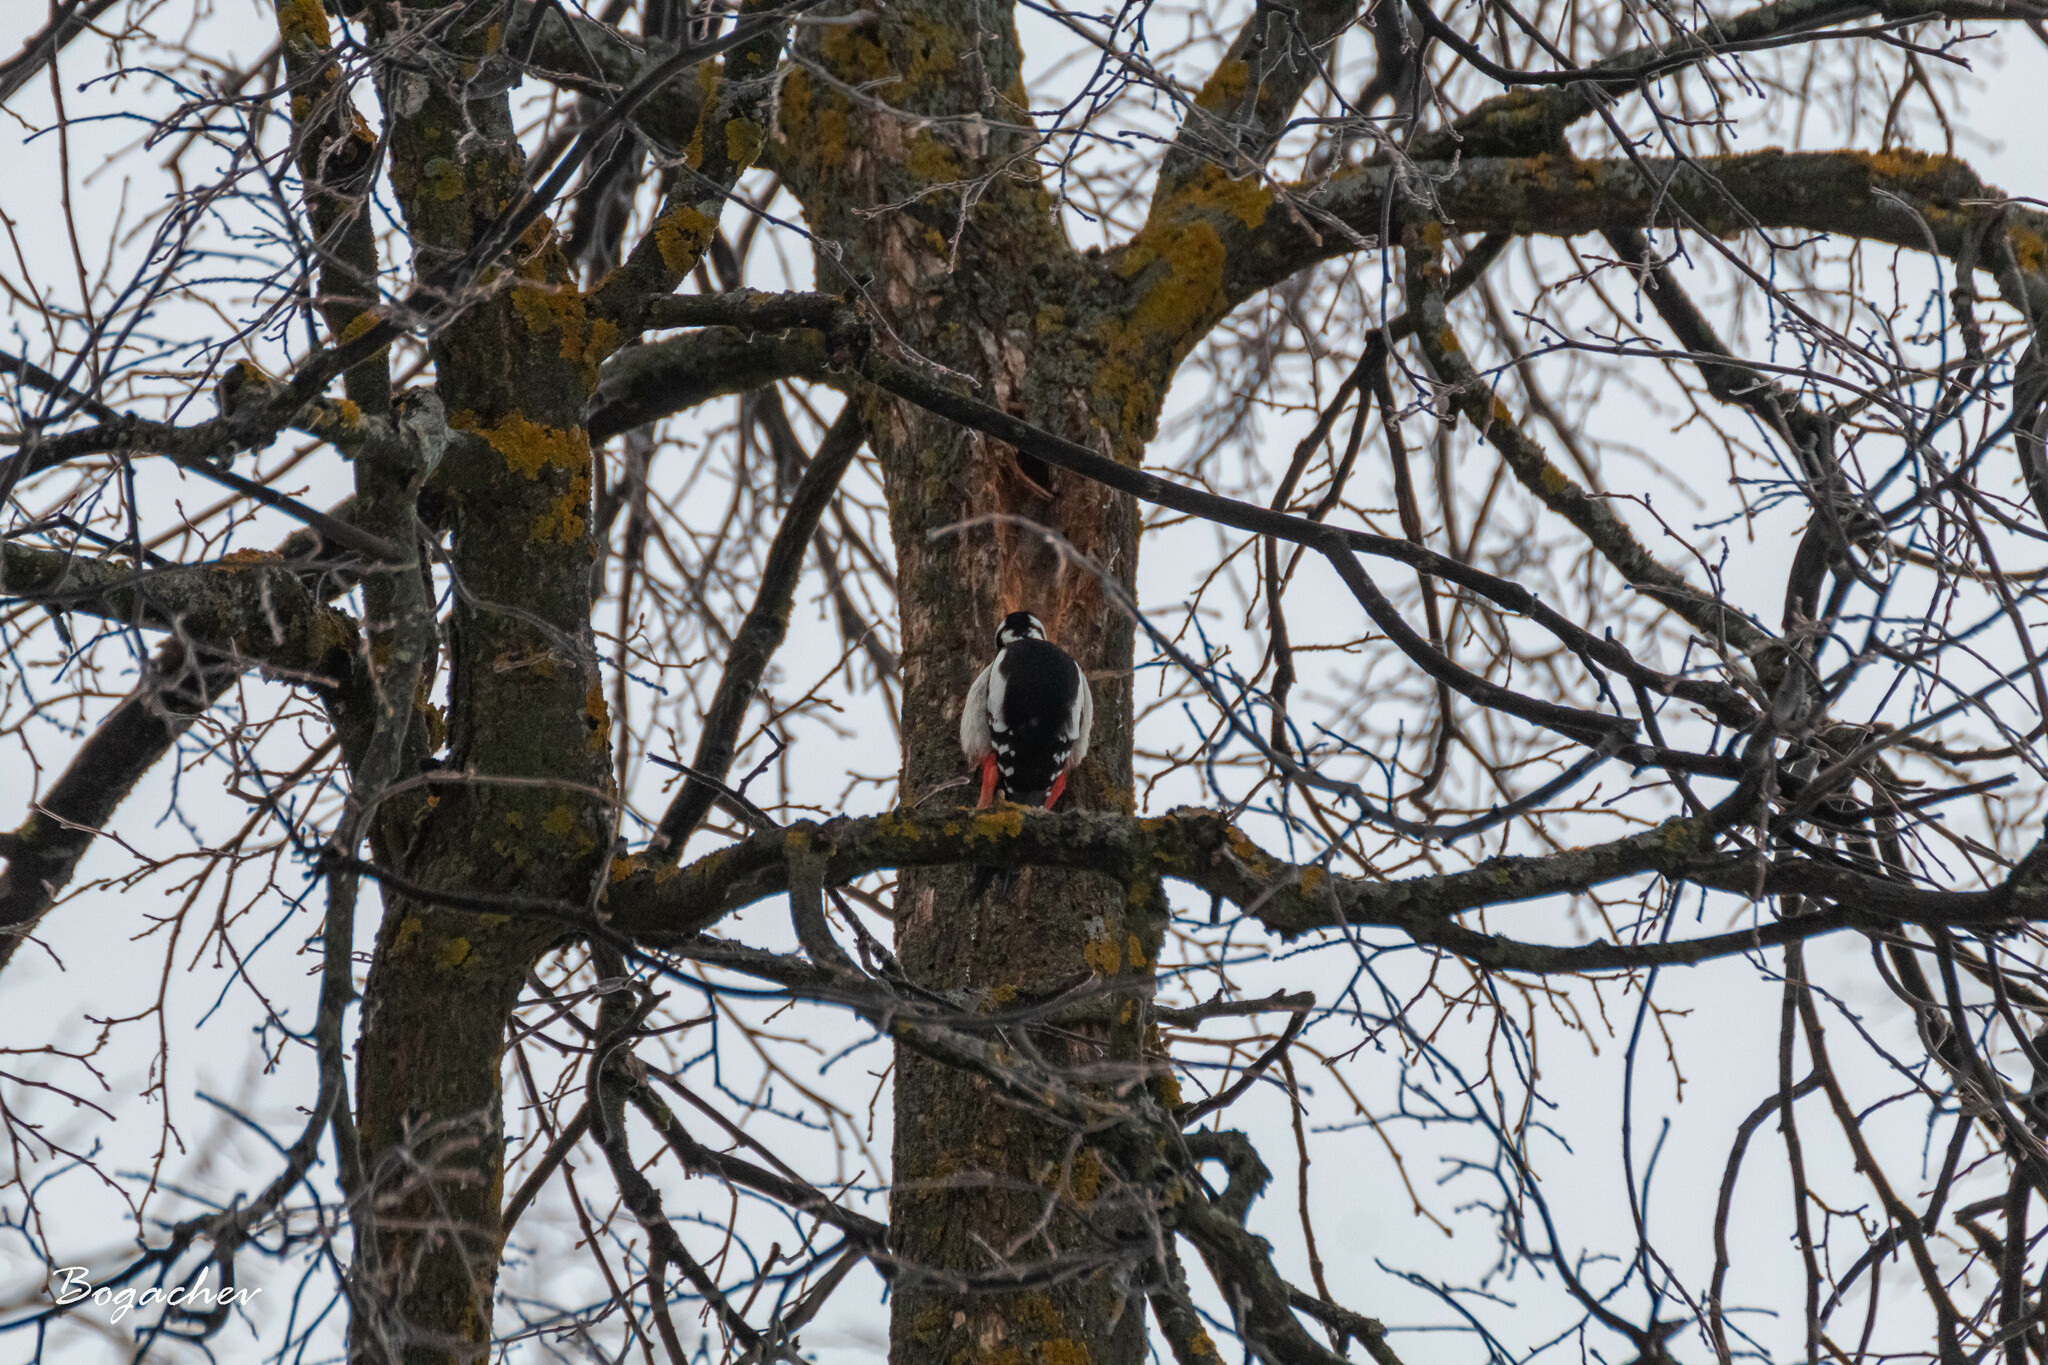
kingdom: Animalia
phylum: Chordata
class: Aves
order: Piciformes
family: Picidae
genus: Dendrocopos
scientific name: Dendrocopos major
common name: Great spotted woodpecker
